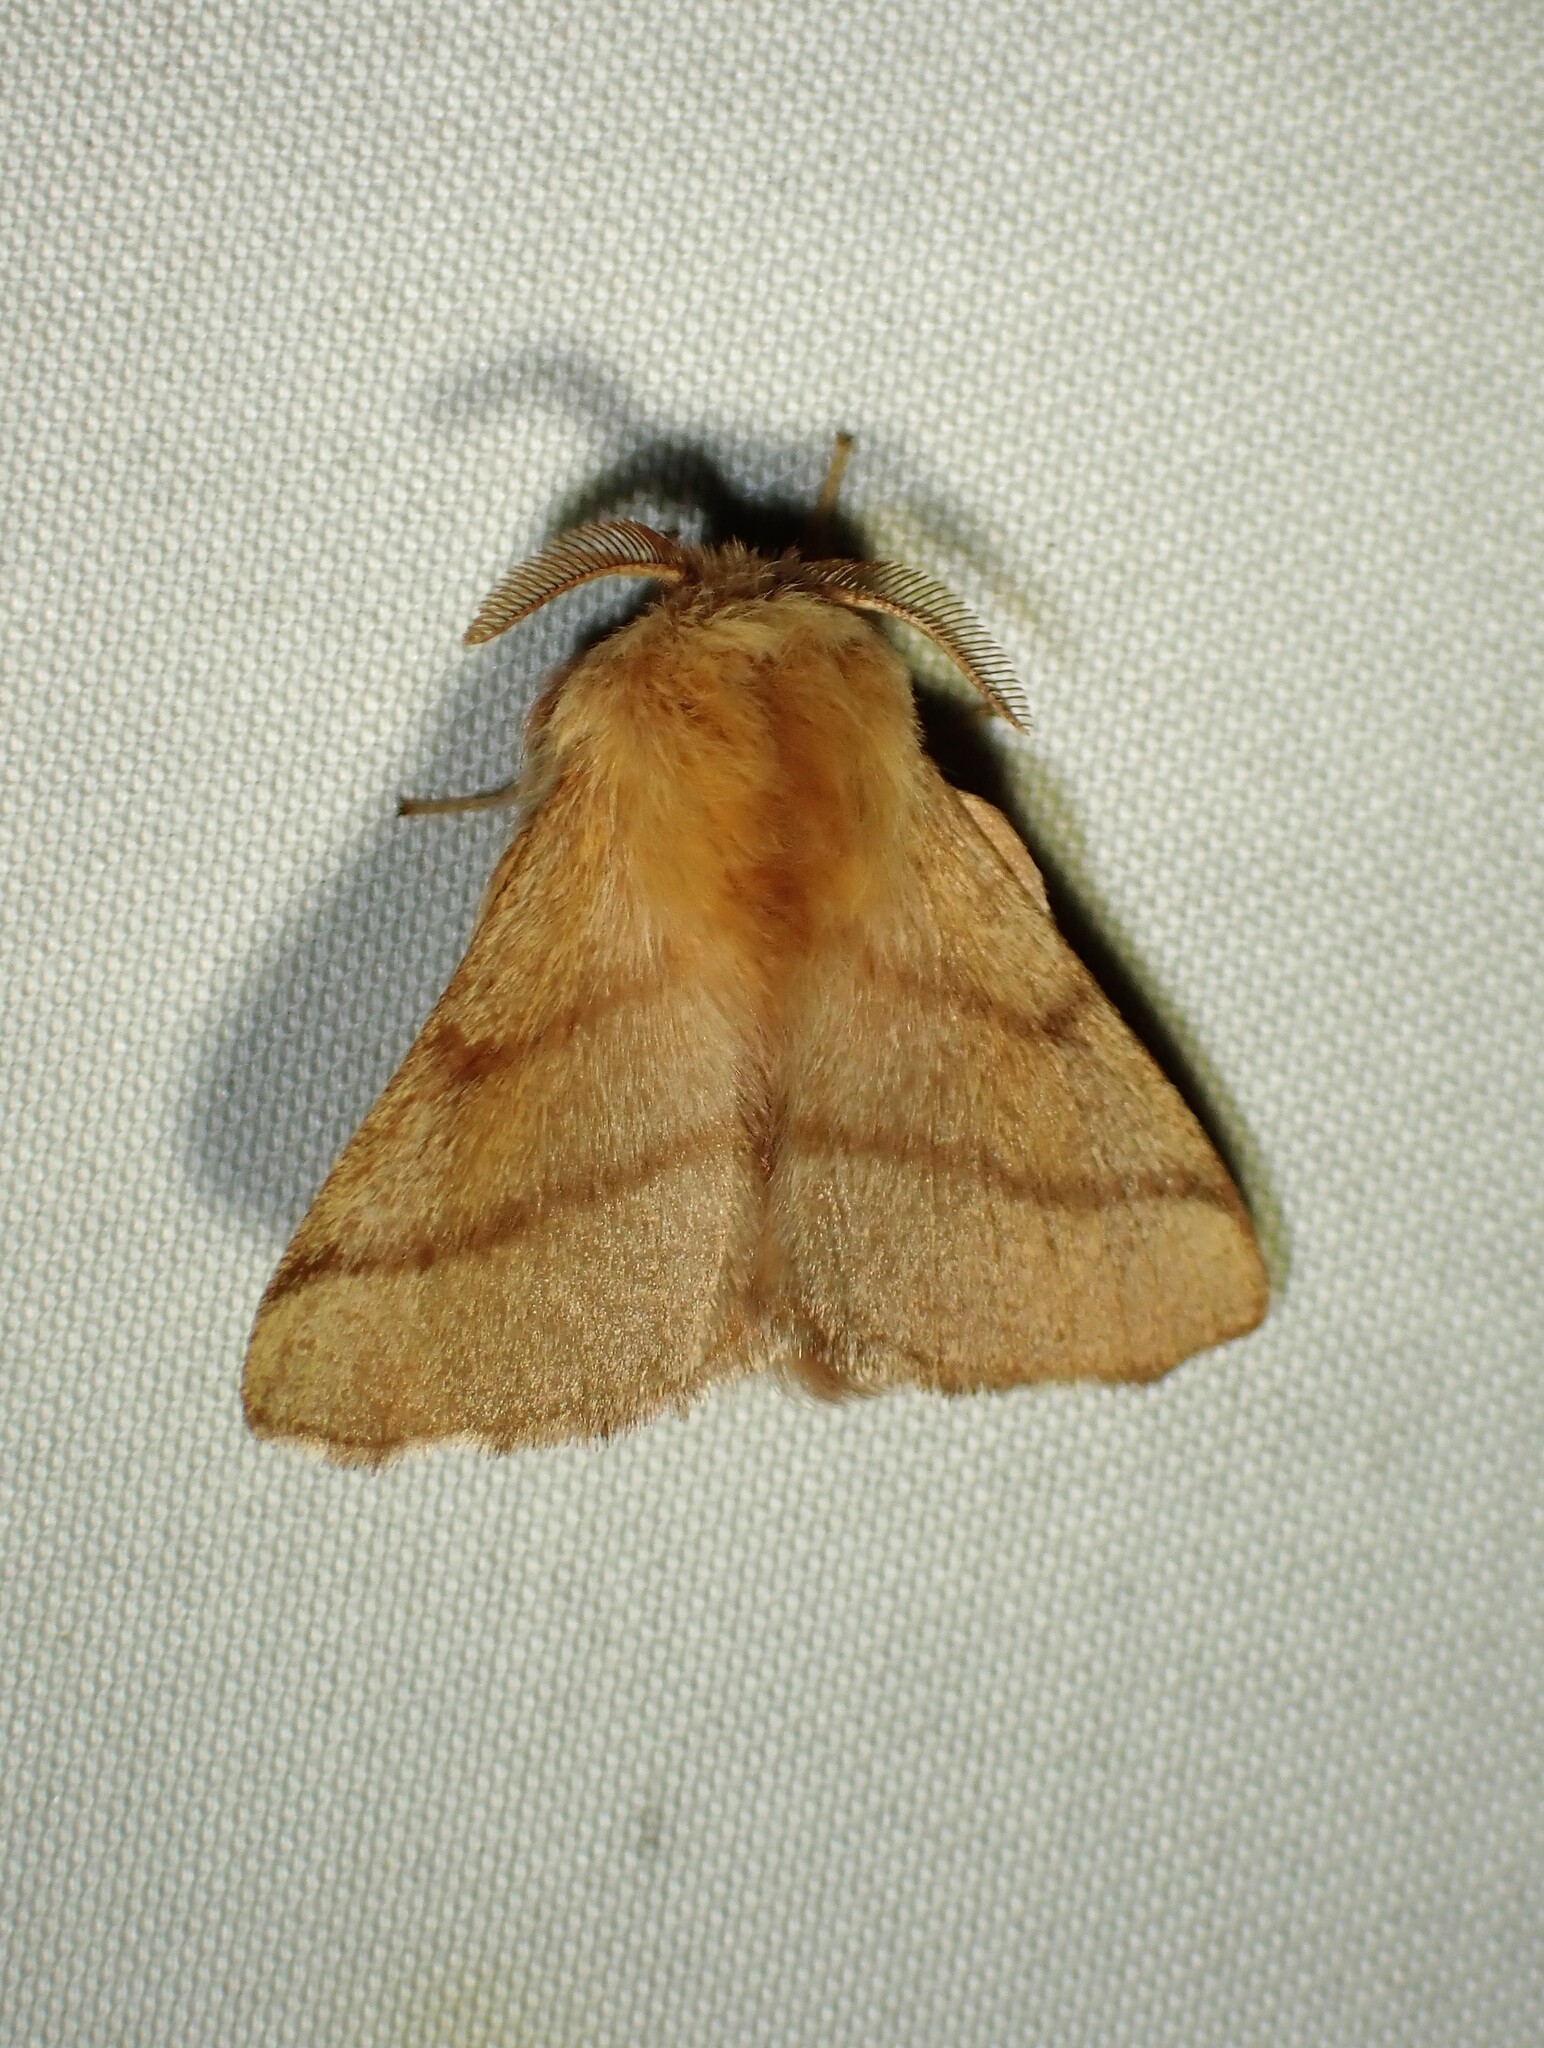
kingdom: Animalia
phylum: Arthropoda
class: Insecta
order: Lepidoptera
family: Lasiocampidae
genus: Malacosoma
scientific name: Malacosoma disstria
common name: Forest tent caterpillar
